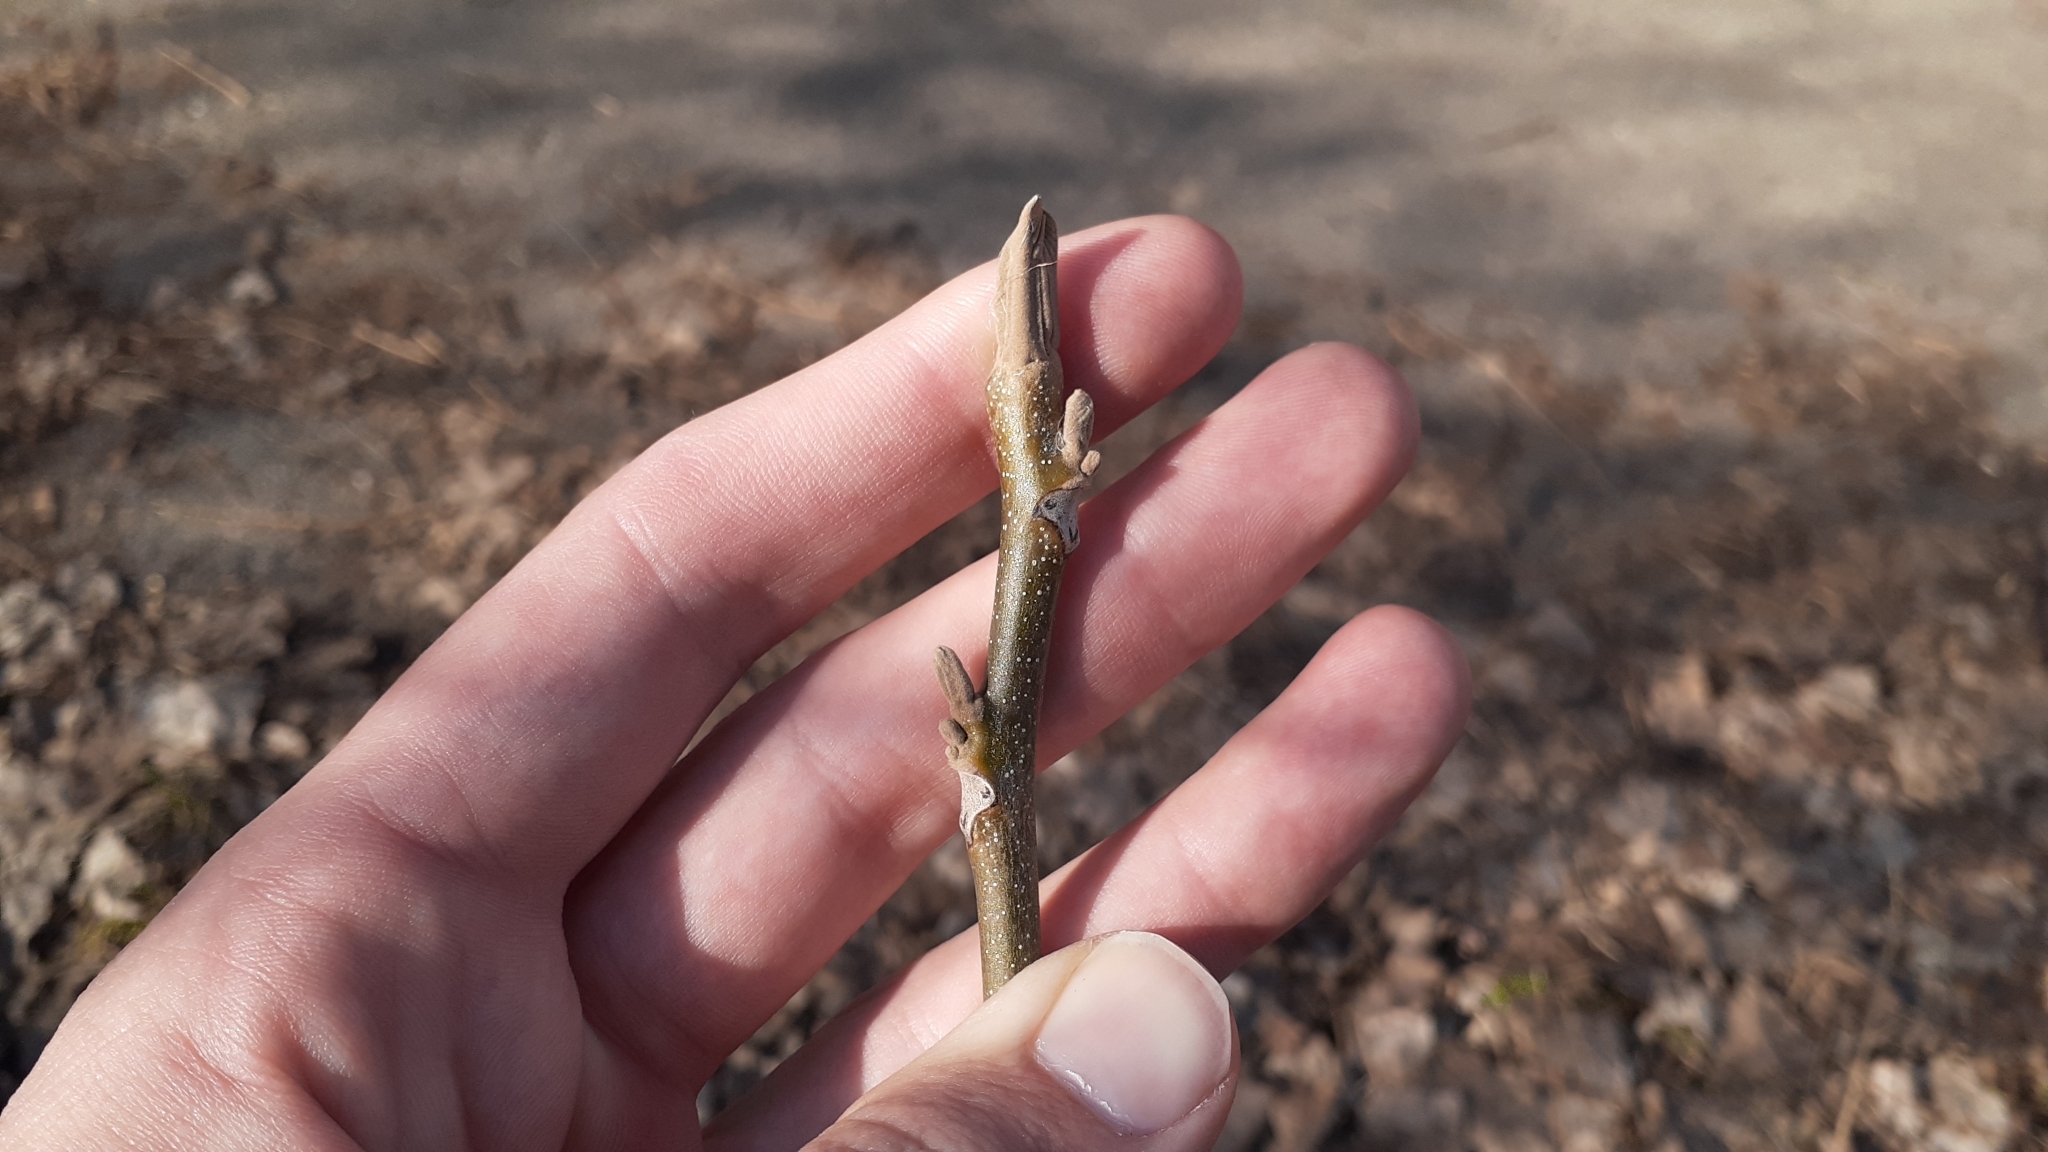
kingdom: Plantae
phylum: Tracheophyta
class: Magnoliopsida
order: Fagales
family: Juglandaceae
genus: Juglans
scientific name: Juglans cinerea
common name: Butternut
